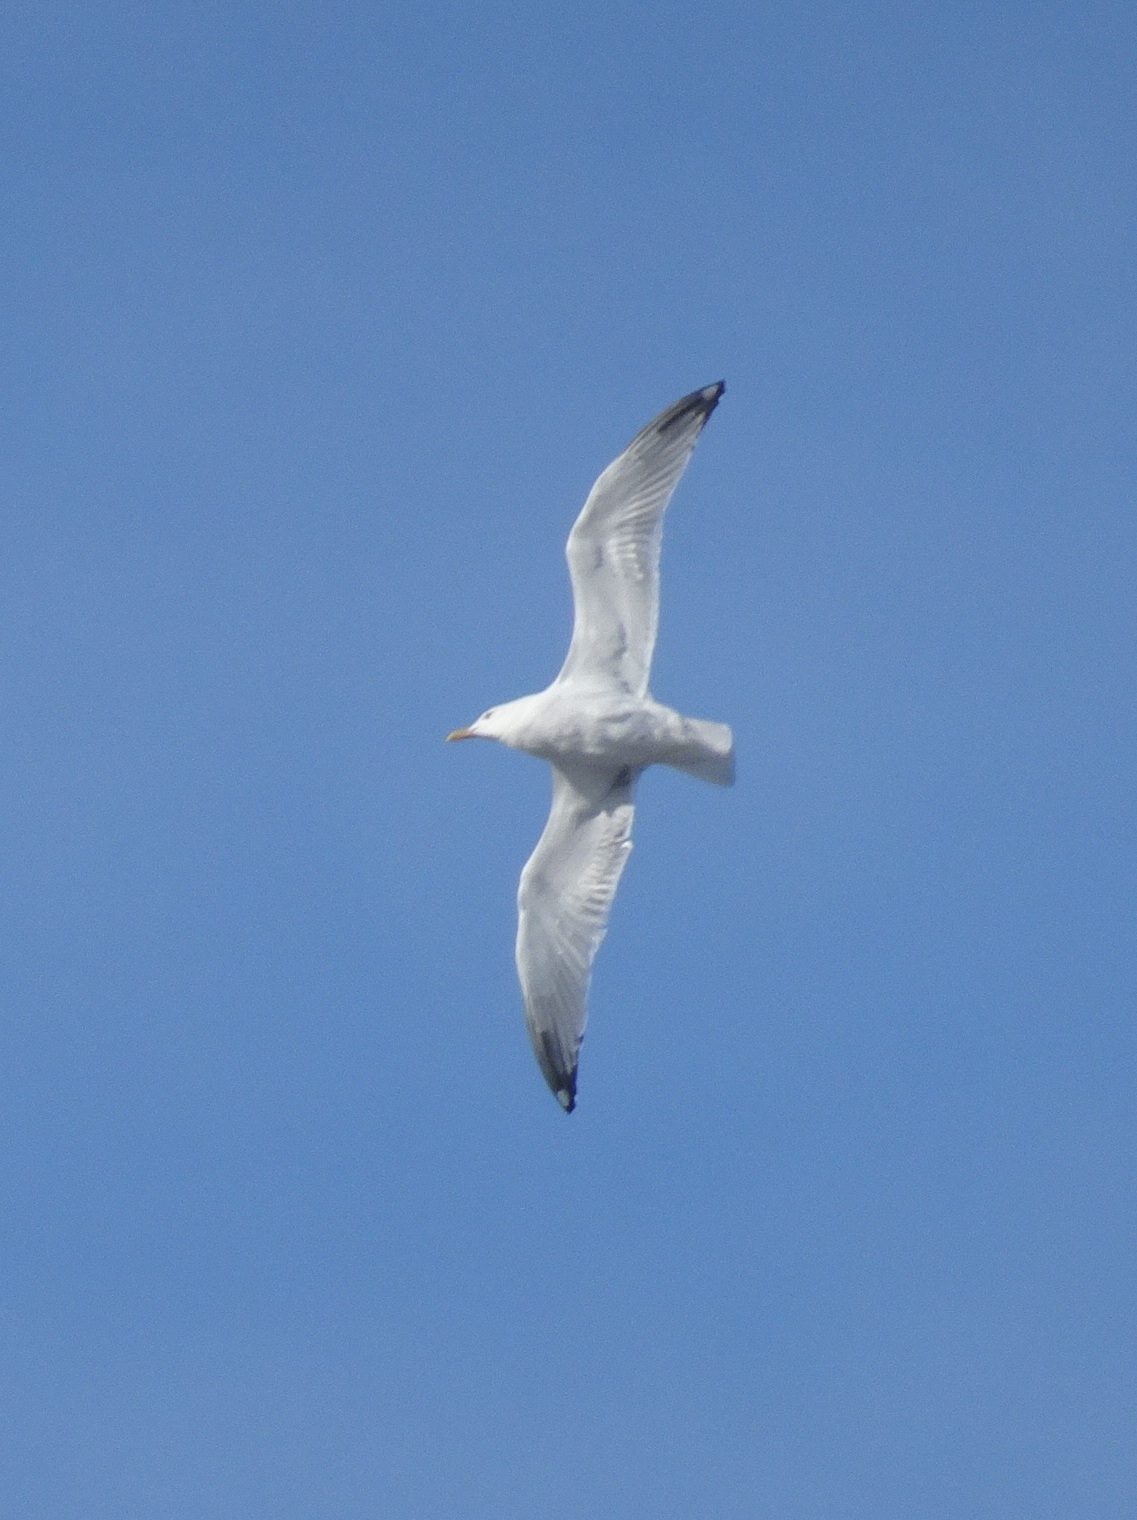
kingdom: Animalia
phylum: Chordata
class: Aves
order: Charadriiformes
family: Laridae
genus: Larus
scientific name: Larus argentatus
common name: Herring gull
